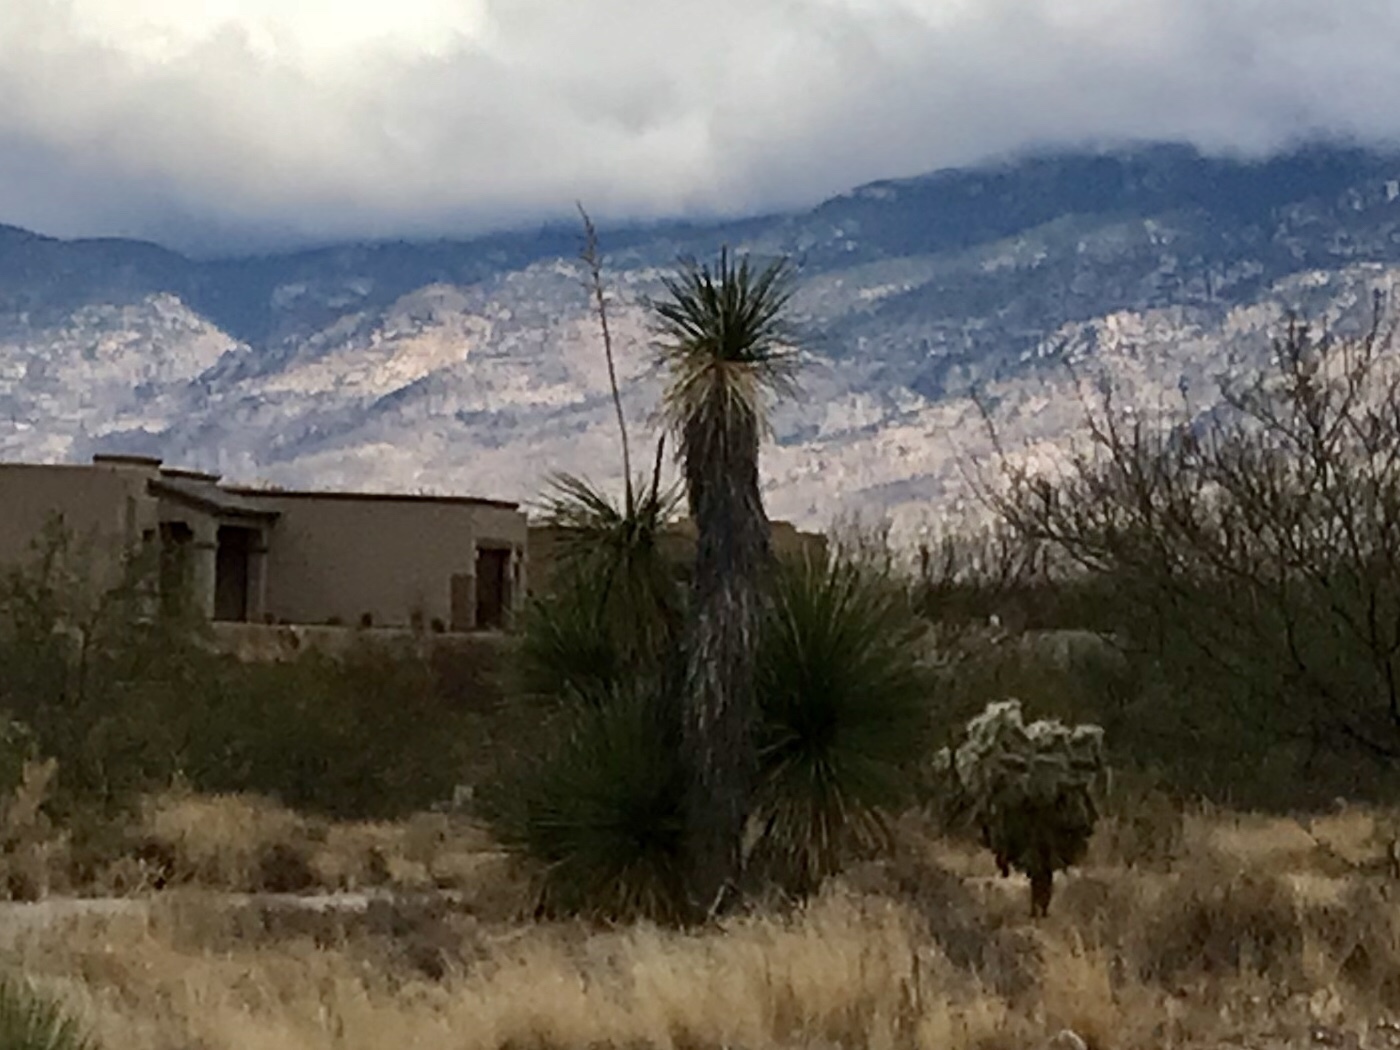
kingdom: Plantae
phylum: Tracheophyta
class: Liliopsida
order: Asparagales
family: Asparagaceae
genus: Yucca
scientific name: Yucca elata
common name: Palmella
